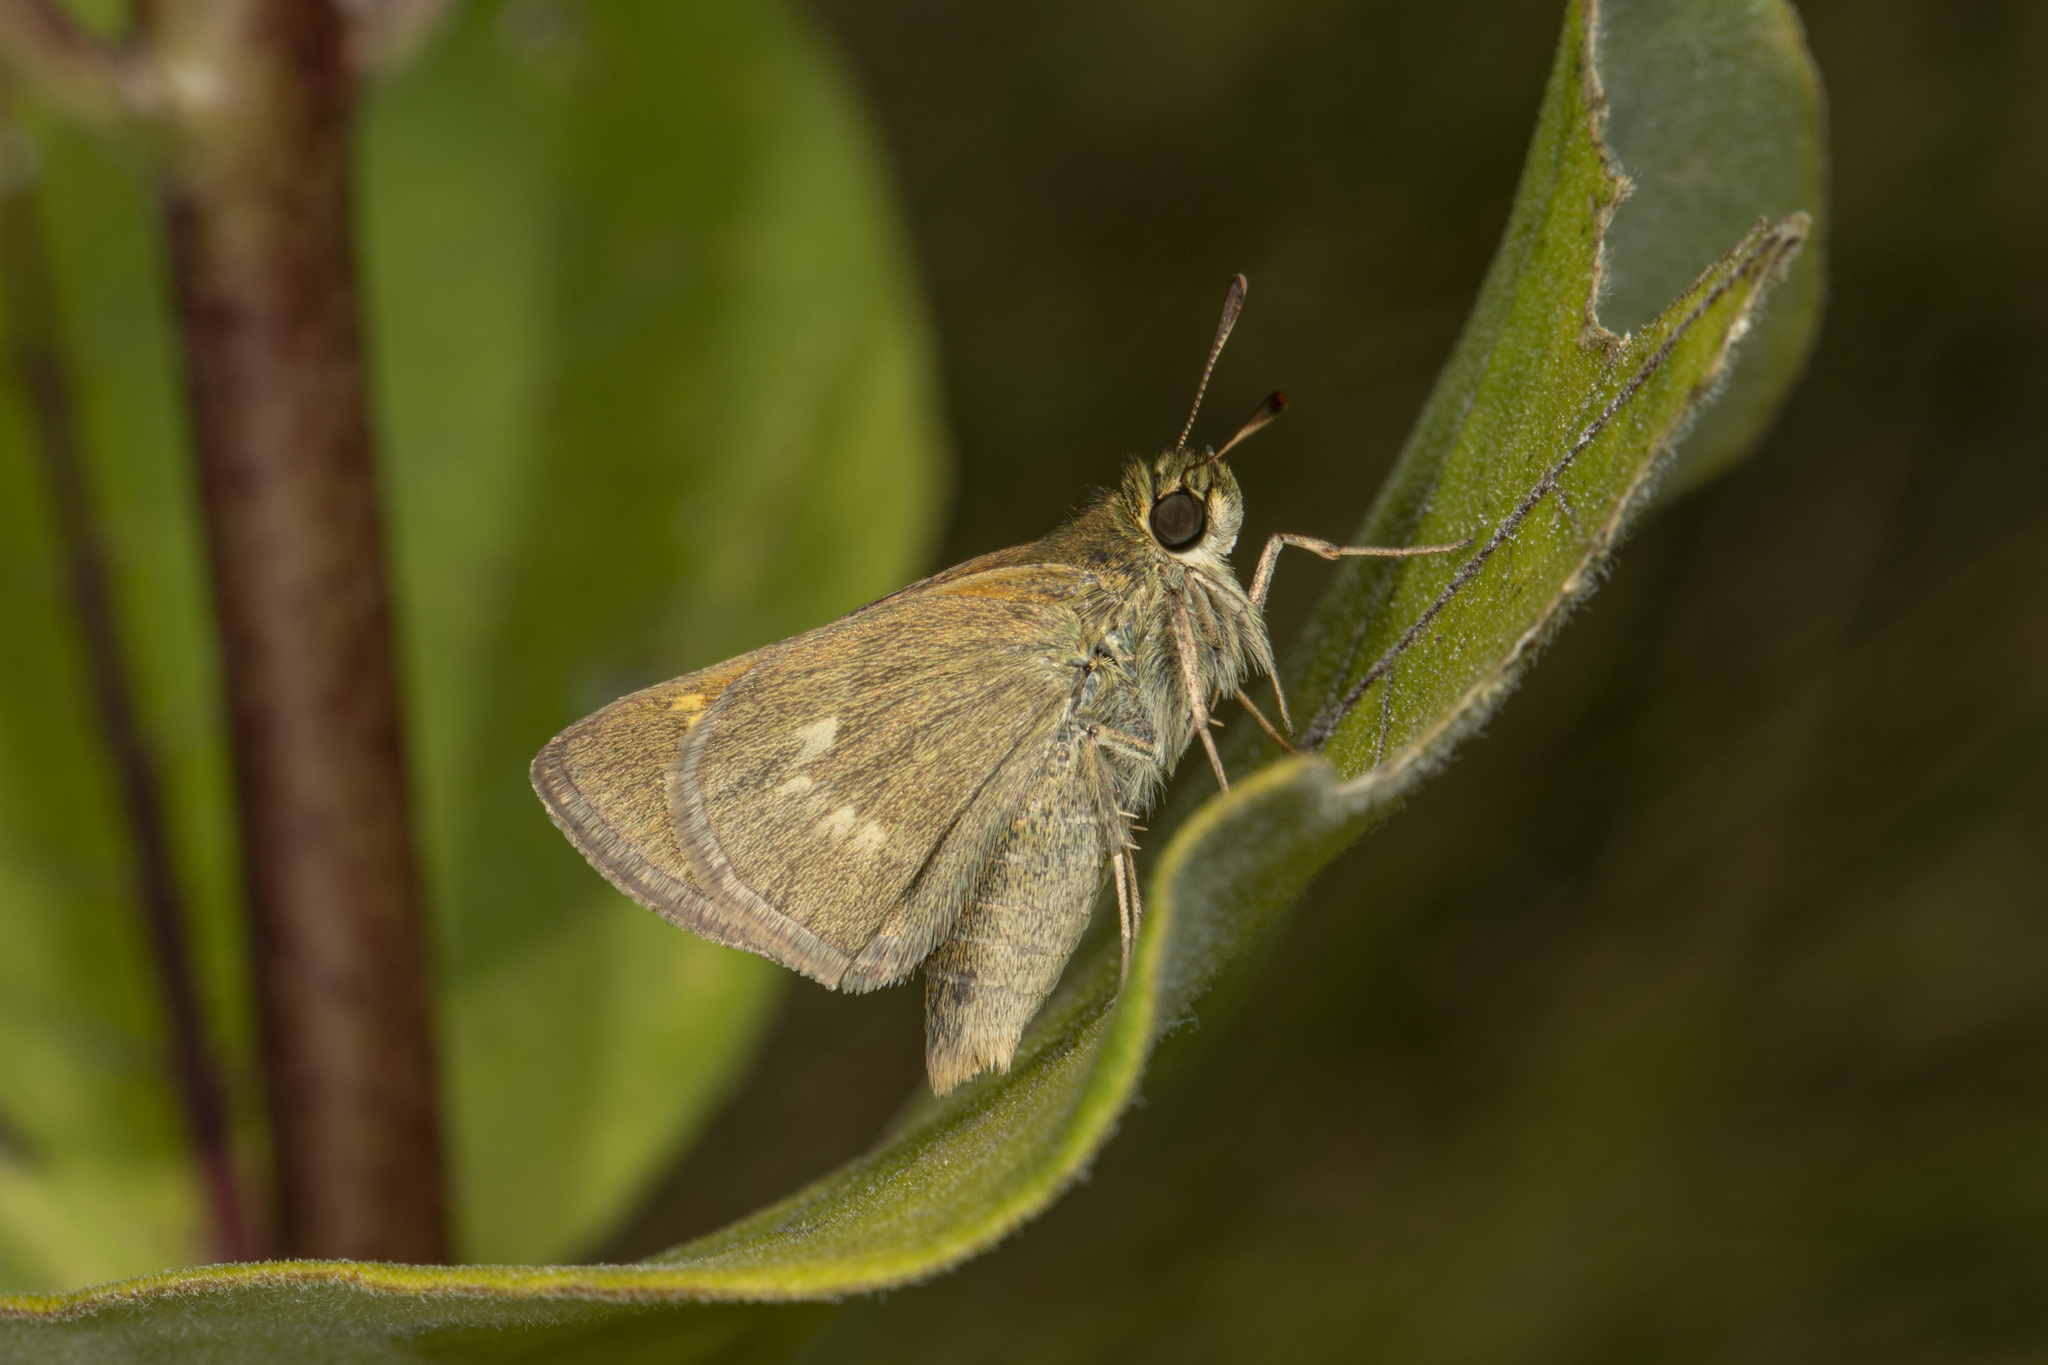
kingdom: Animalia
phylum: Arthropoda
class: Insecta
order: Lepidoptera
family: Hesperiidae
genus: Polites
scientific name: Polites origenes
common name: Crossline skipper
